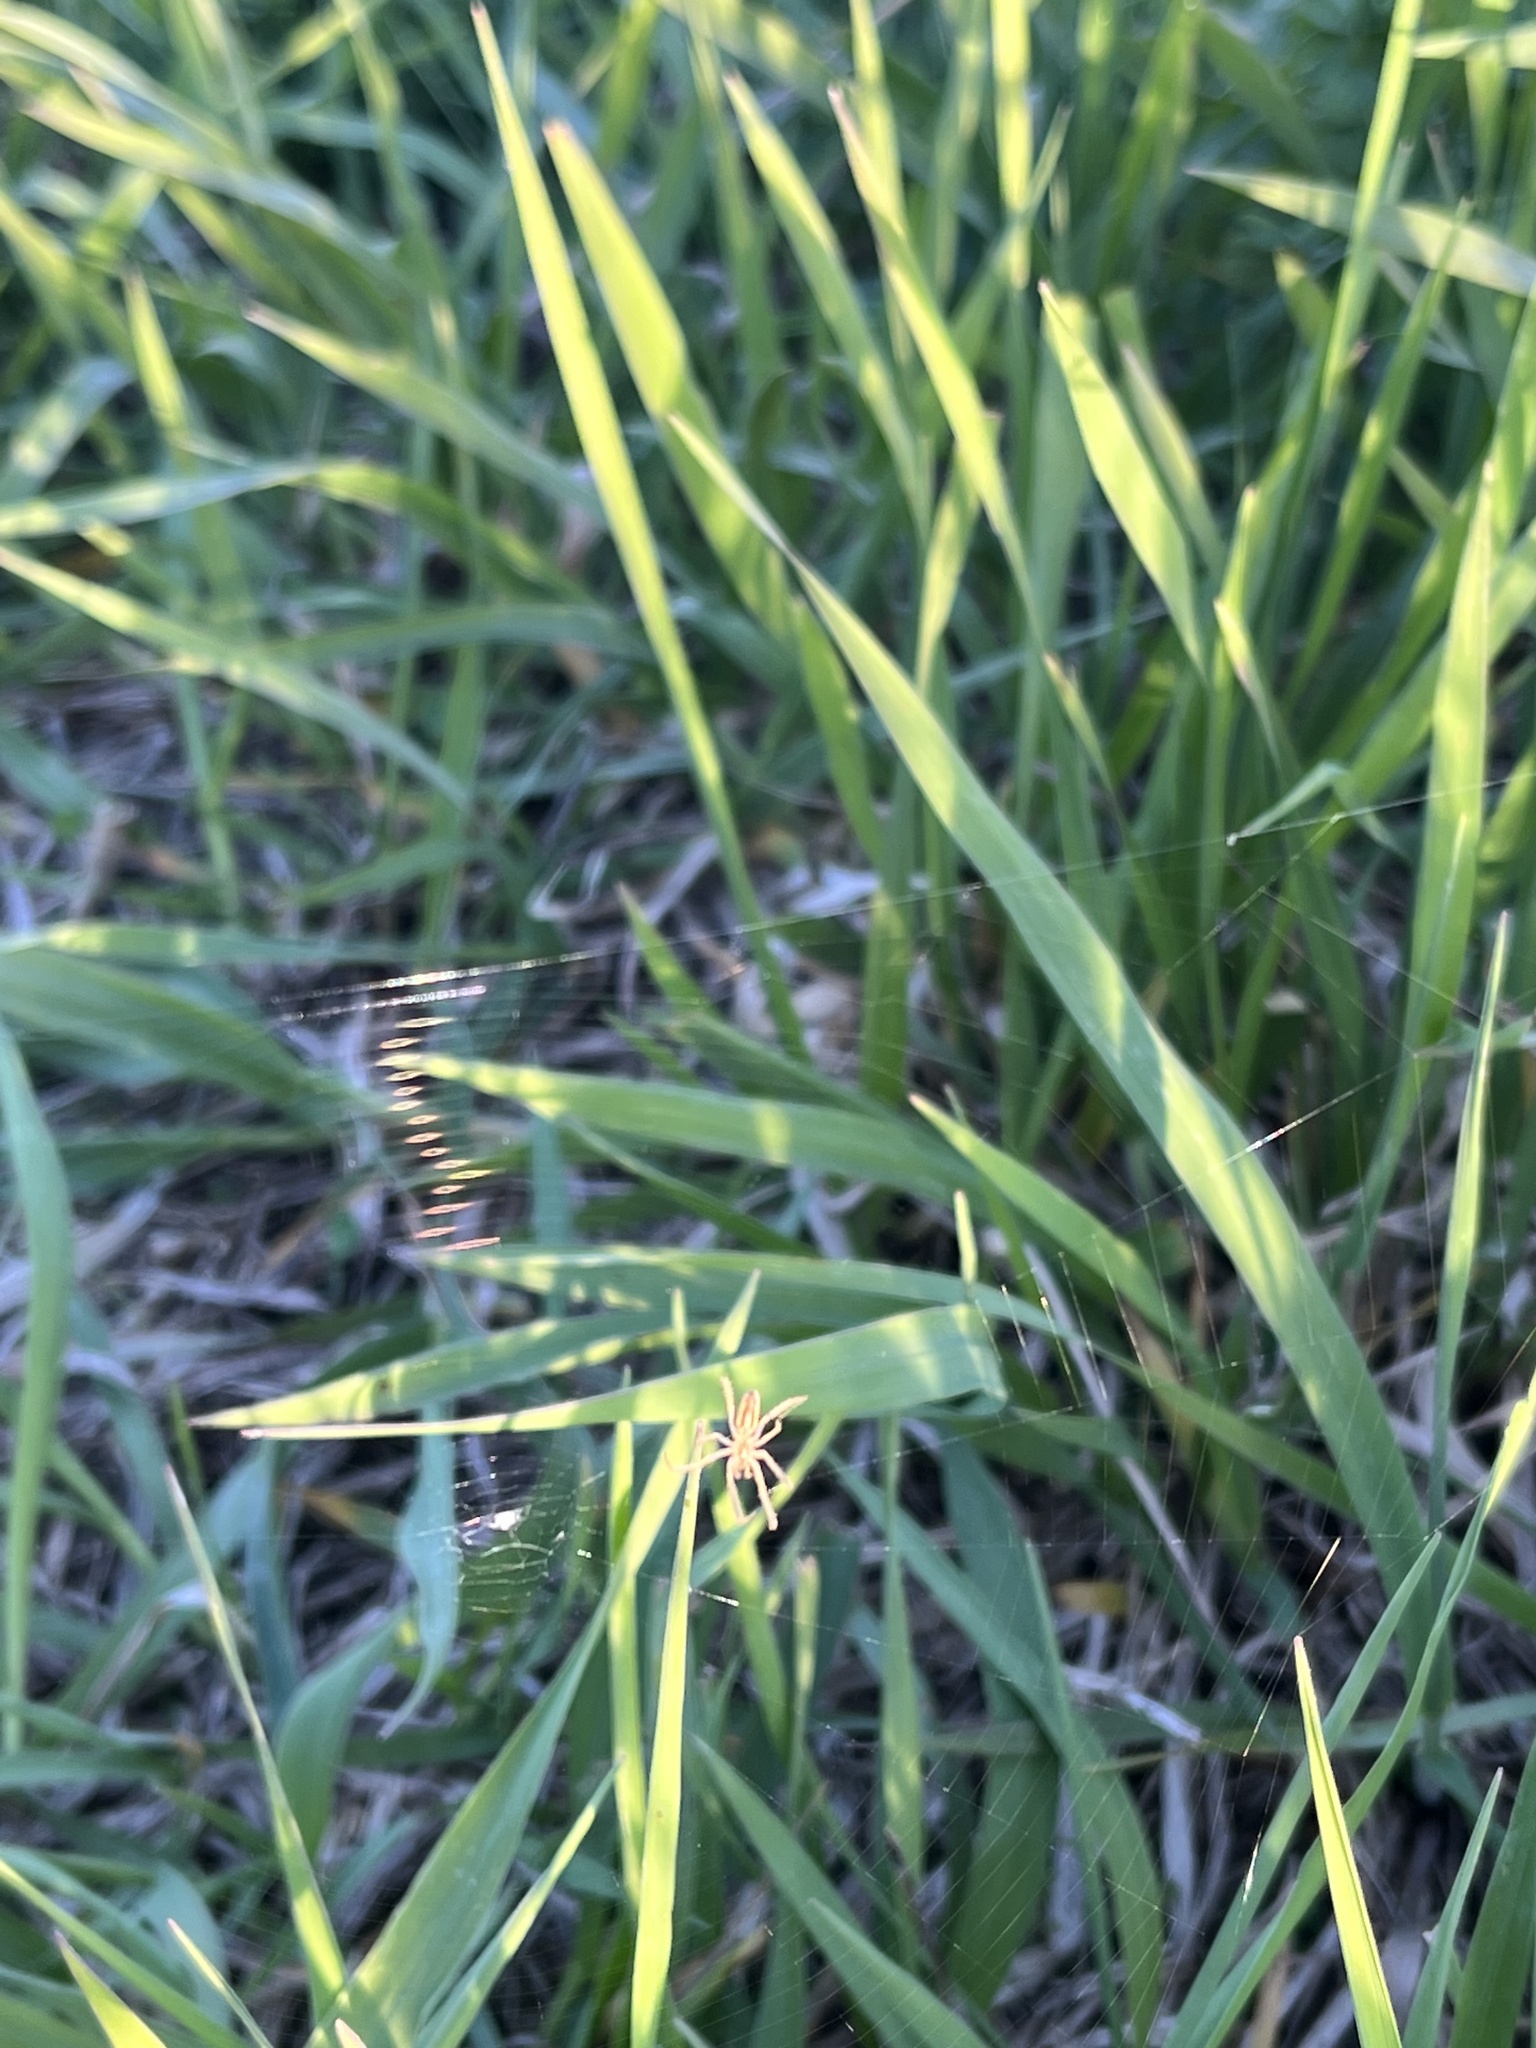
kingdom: Animalia
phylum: Arthropoda
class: Arachnida
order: Araneae
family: Araneidae
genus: Larinia
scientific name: Larinia borealis
